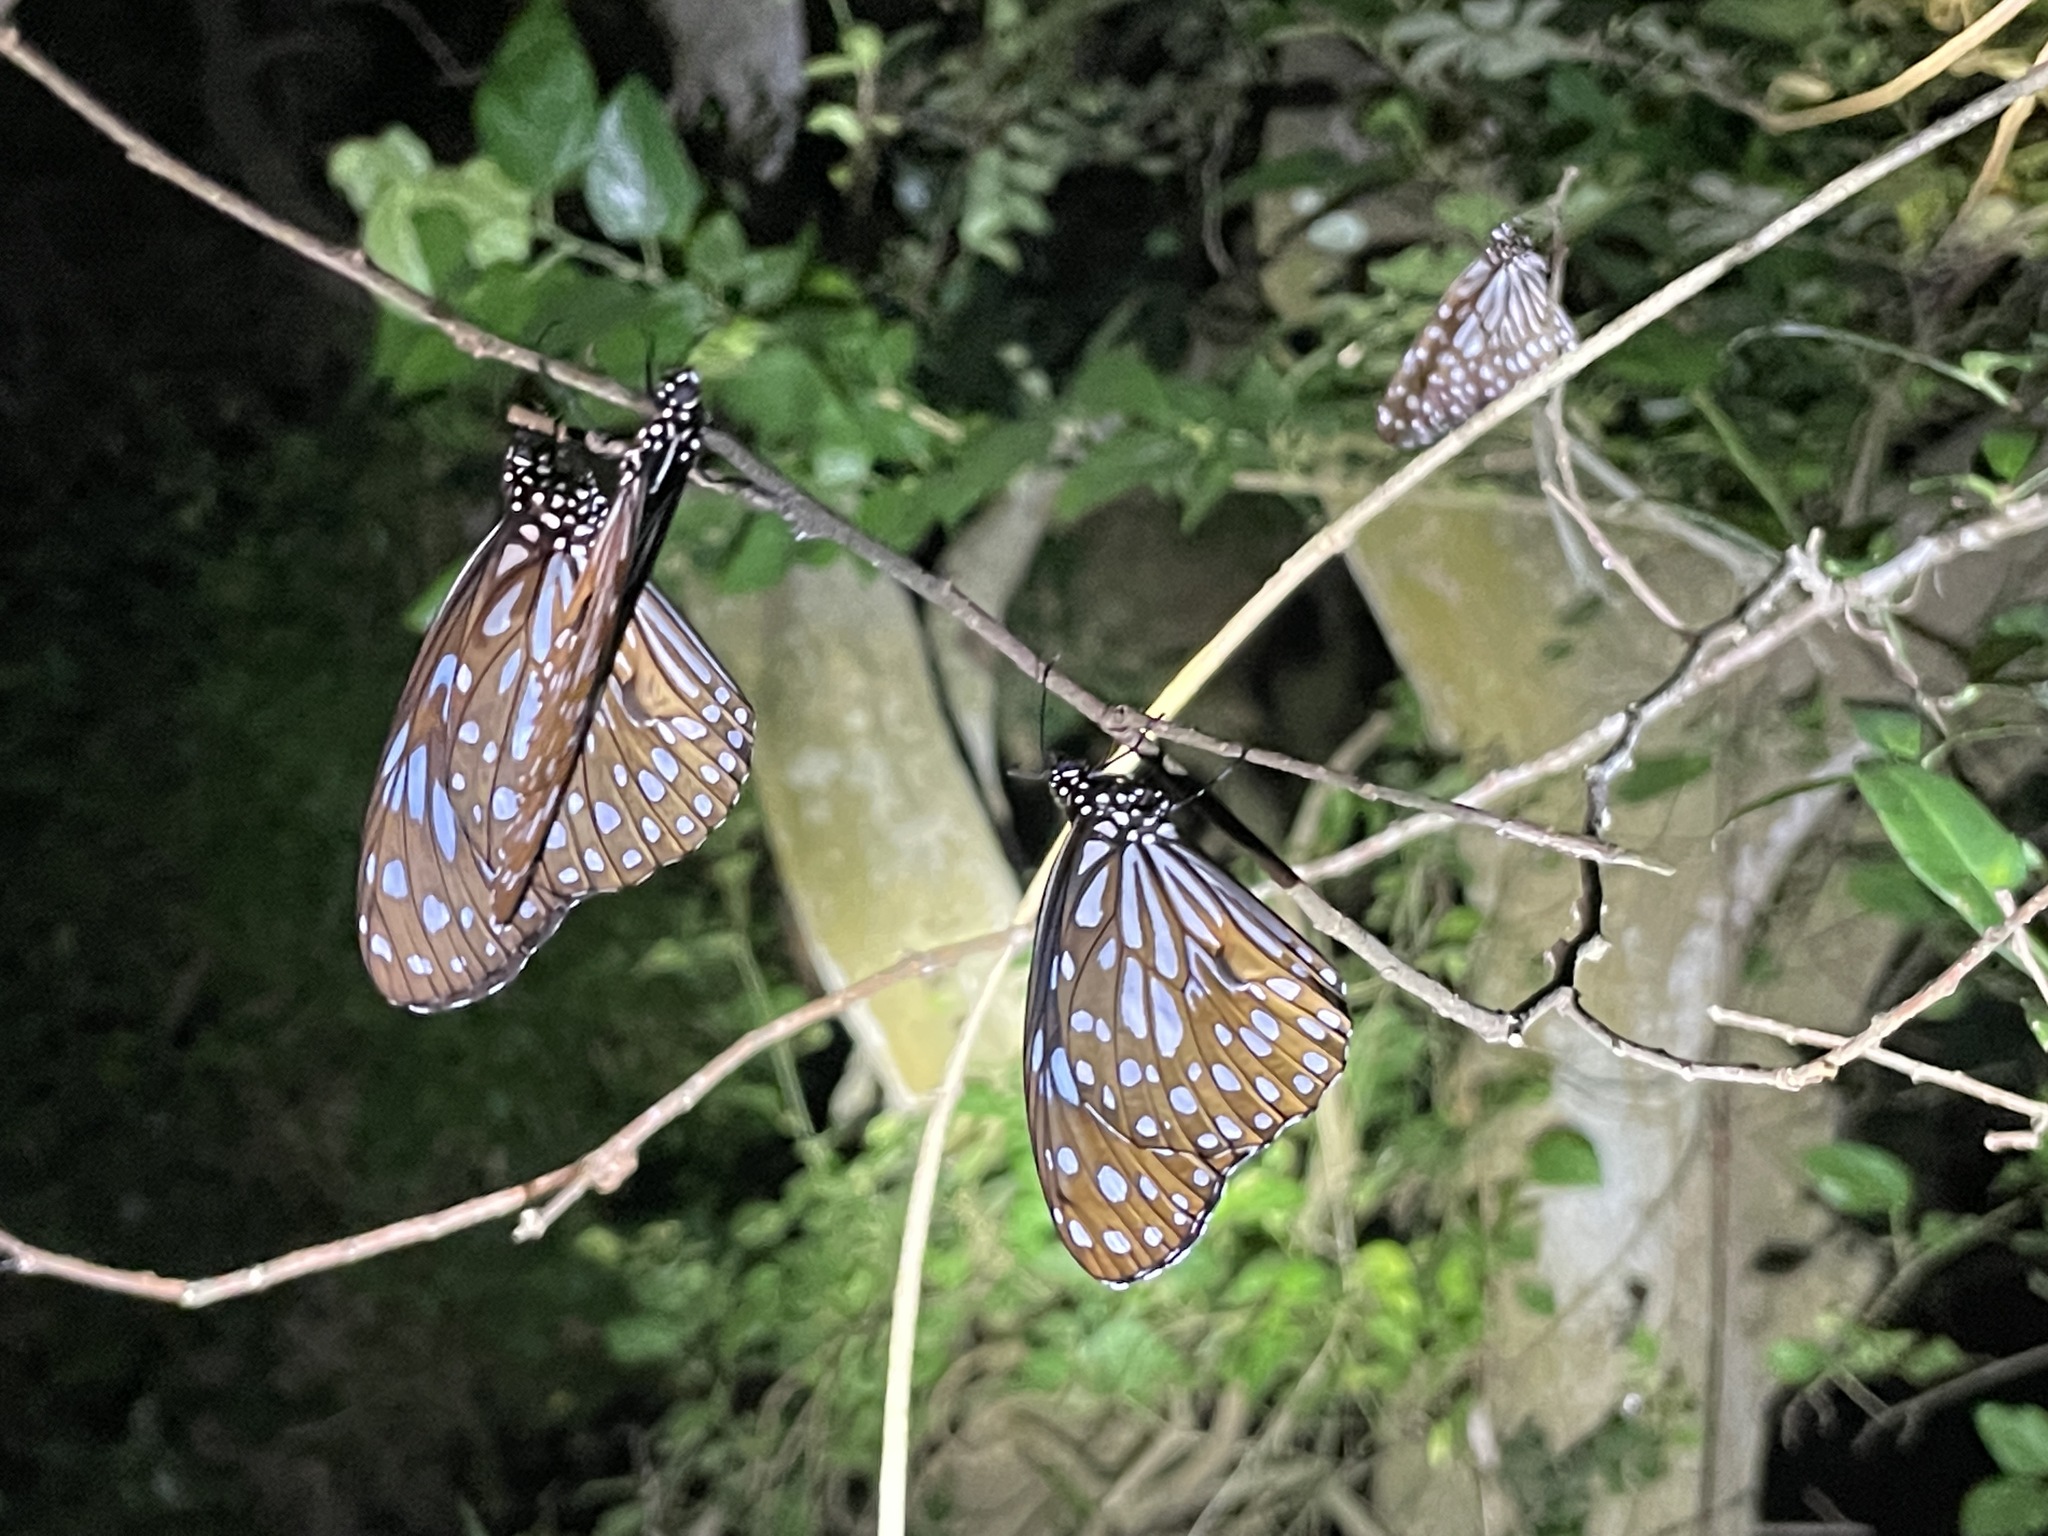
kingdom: Animalia
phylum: Arthropoda
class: Insecta
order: Lepidoptera
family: Nymphalidae
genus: Tirumala
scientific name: Tirumala limniace
